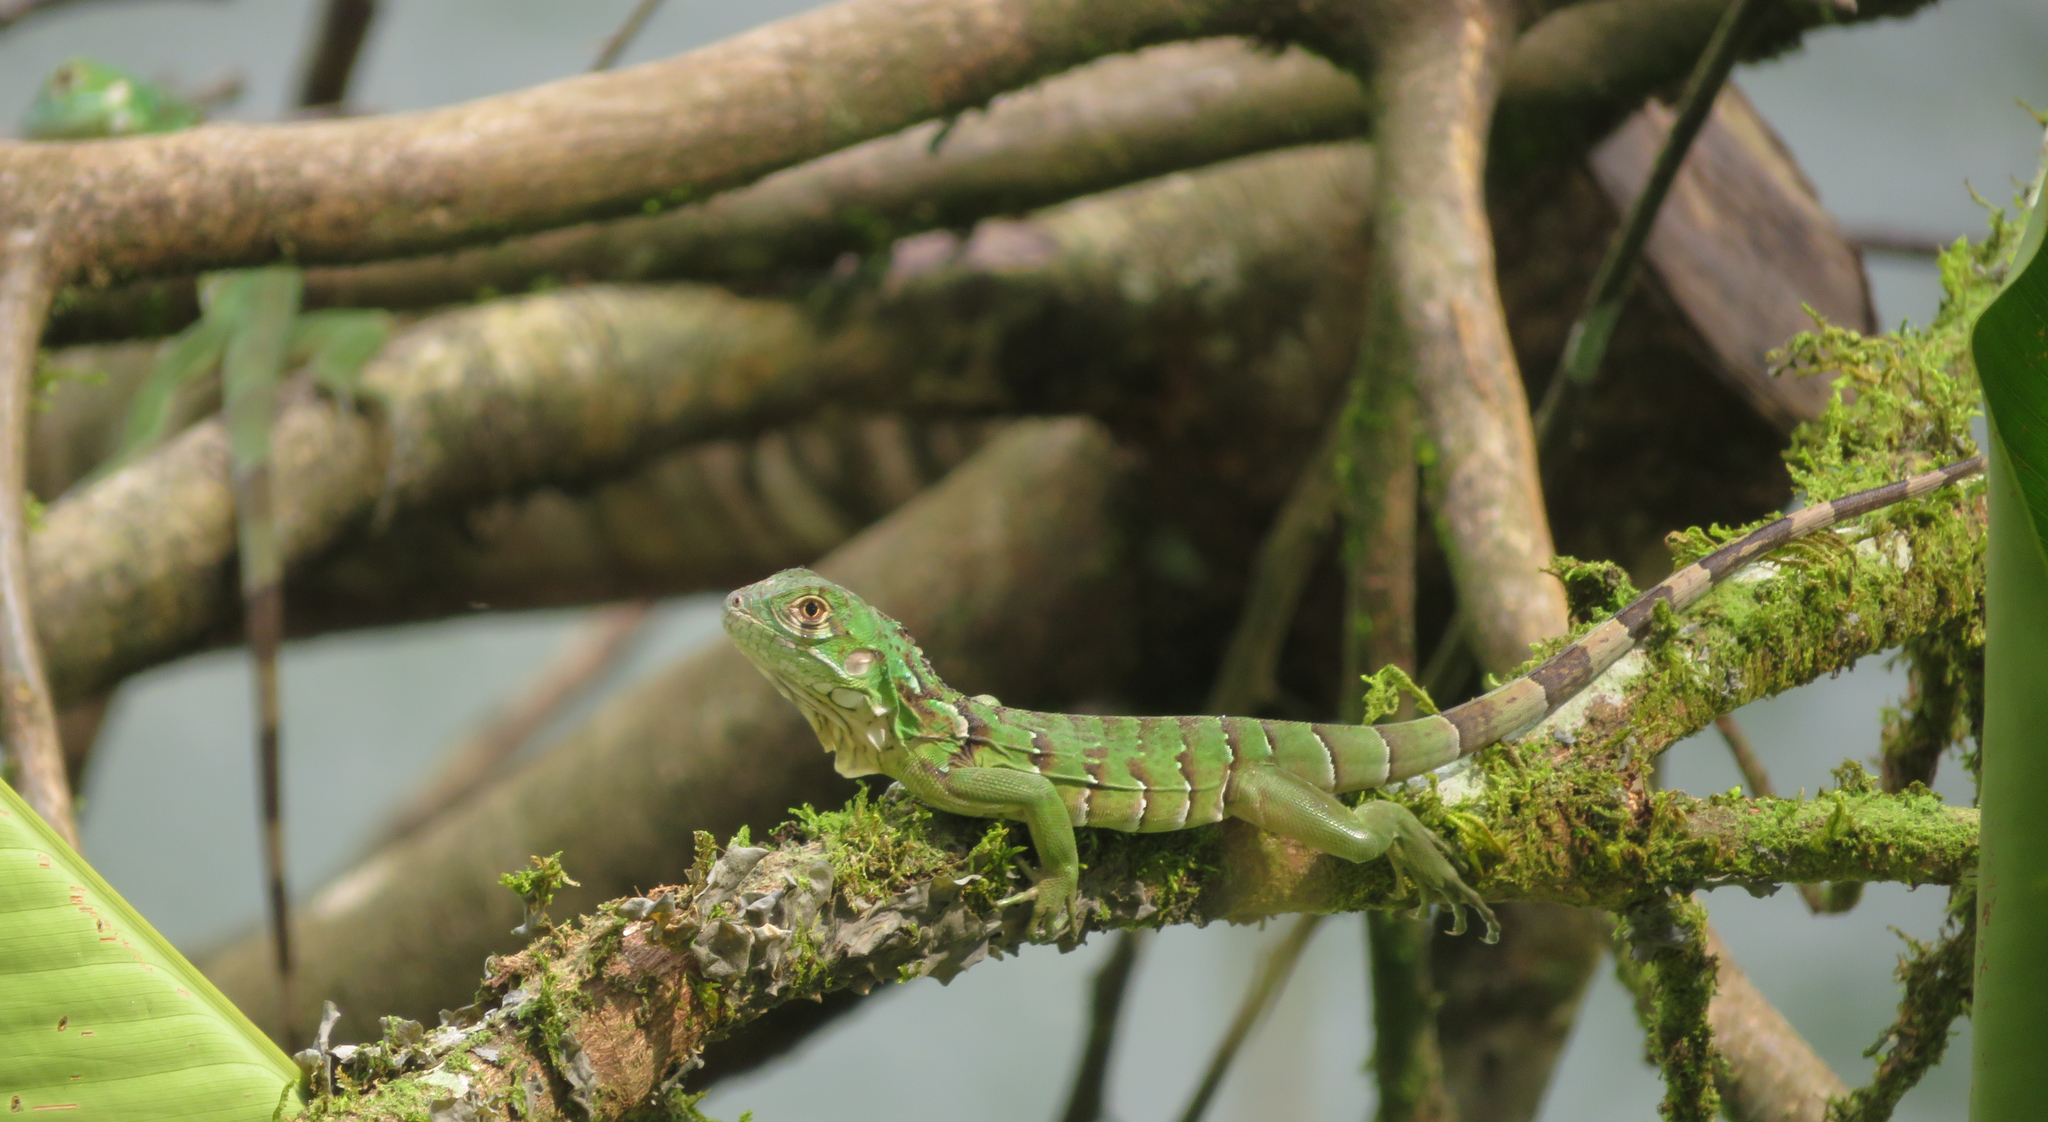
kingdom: Animalia
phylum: Chordata
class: Squamata
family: Iguanidae
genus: Iguana
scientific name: Iguana iguana
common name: Green iguana
